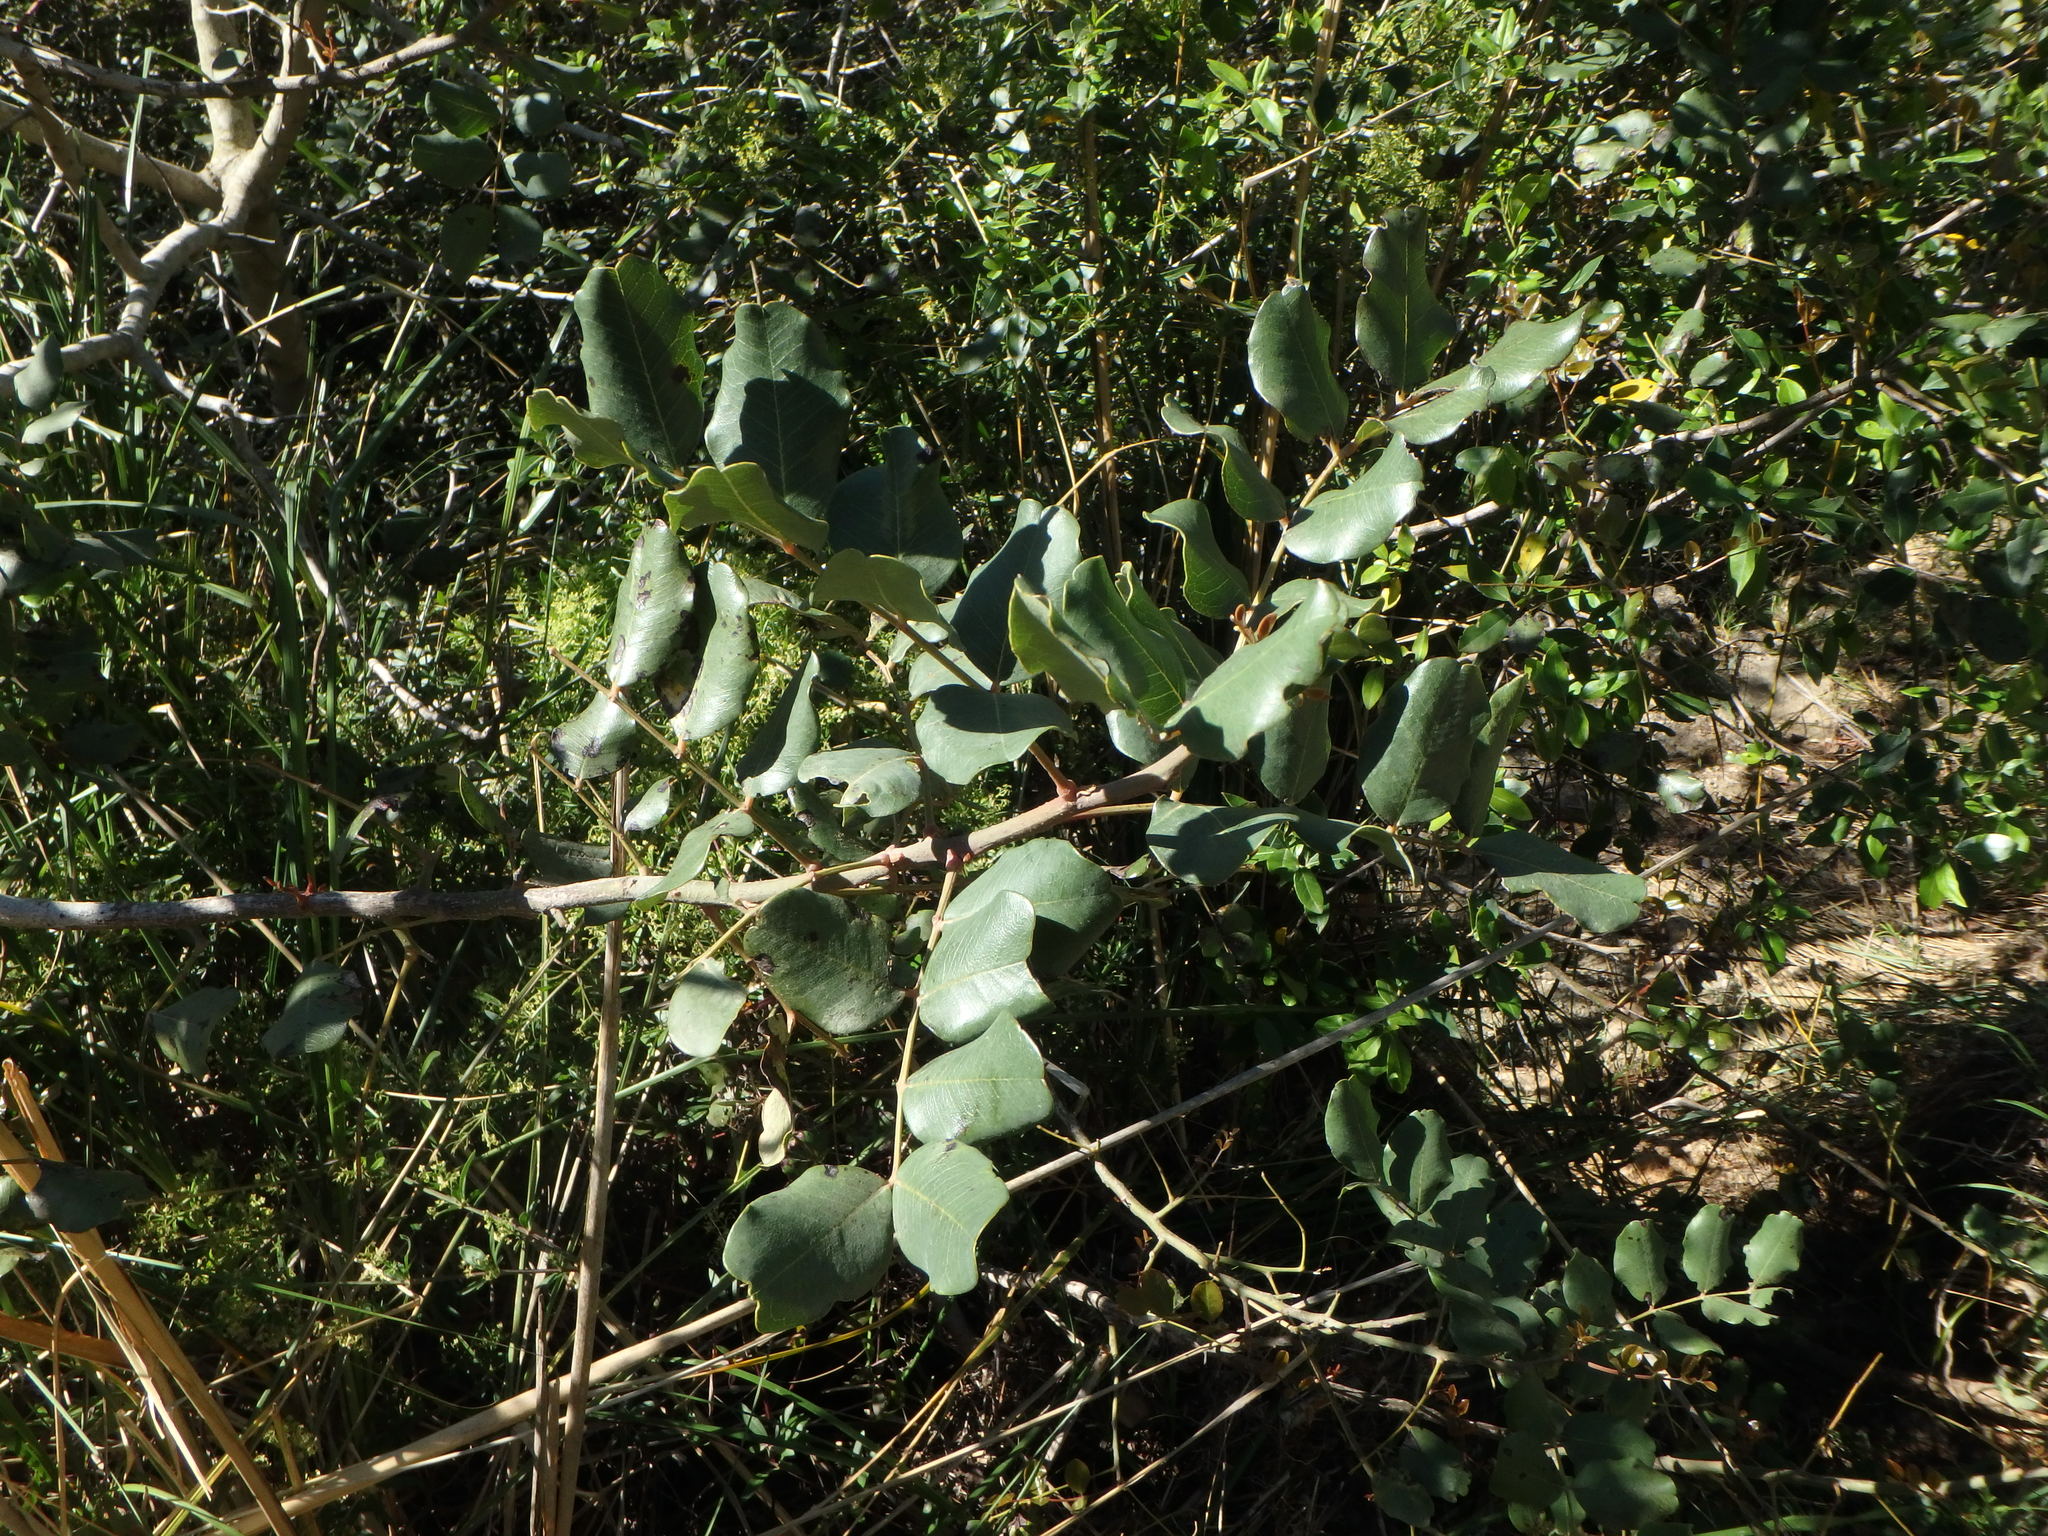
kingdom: Plantae
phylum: Tracheophyta
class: Magnoliopsida
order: Fabales
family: Fabaceae
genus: Ceratonia
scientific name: Ceratonia siliqua
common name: Carob
